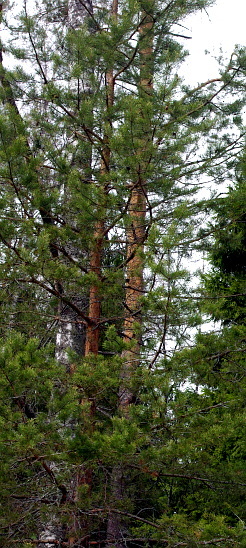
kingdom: Plantae
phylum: Tracheophyta
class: Pinopsida
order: Pinales
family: Pinaceae
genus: Pinus
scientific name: Pinus sylvestris
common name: Scots pine
